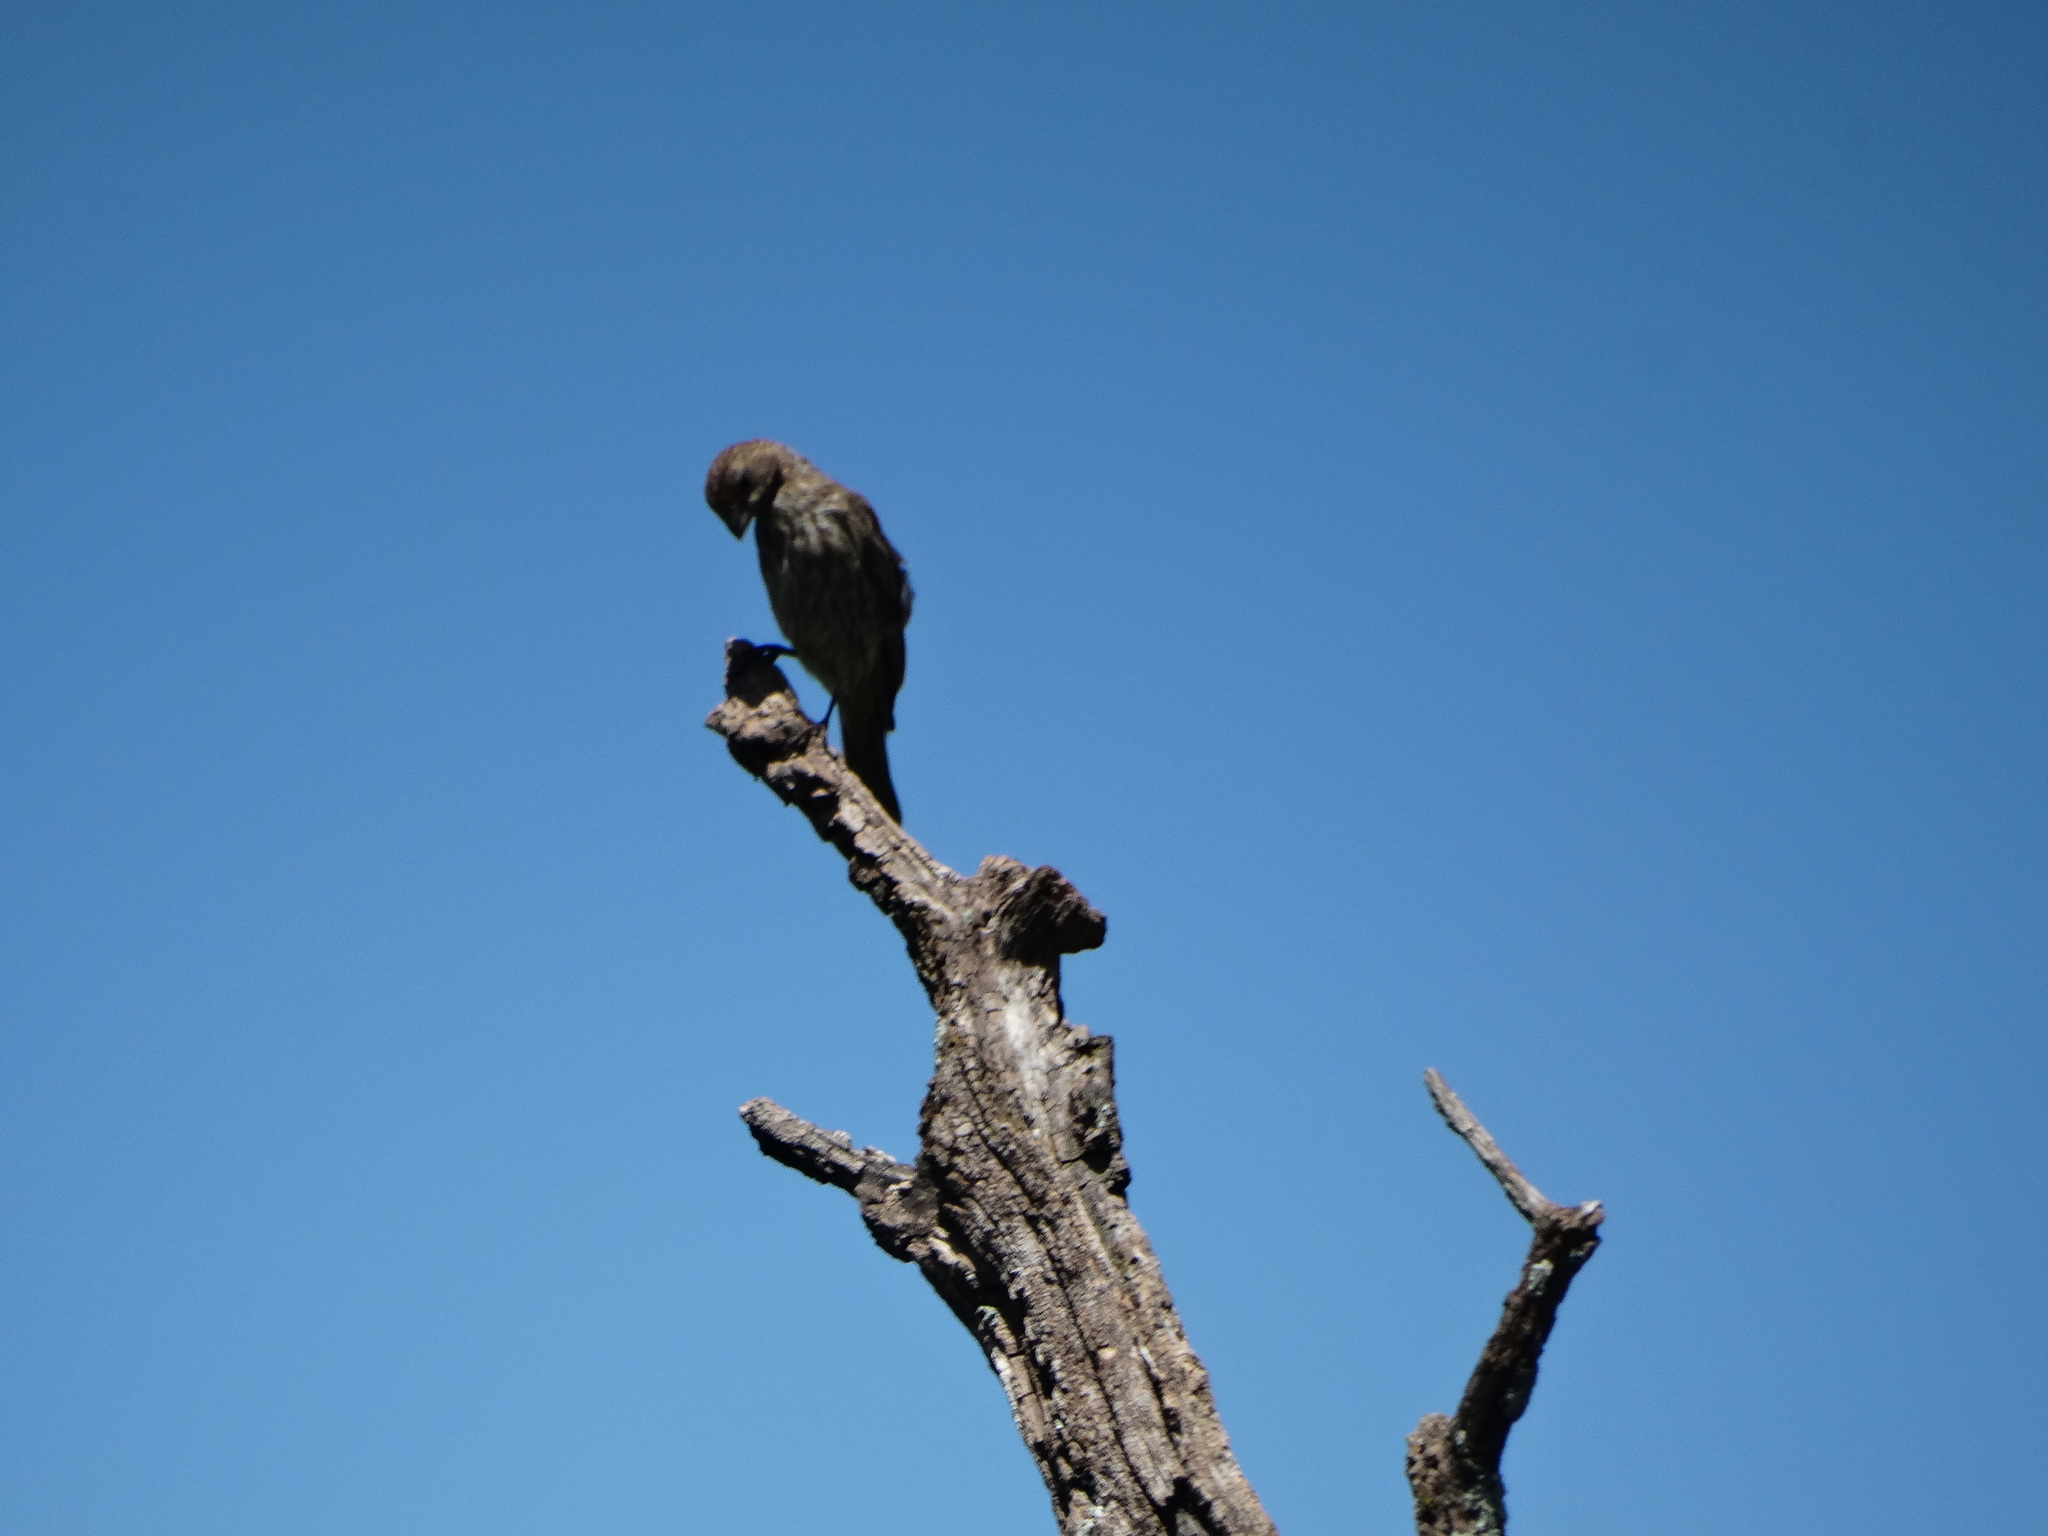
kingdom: Animalia
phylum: Chordata
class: Aves
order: Passeriformes
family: Fringillidae
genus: Haemorhous
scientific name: Haemorhous mexicanus
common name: House finch
